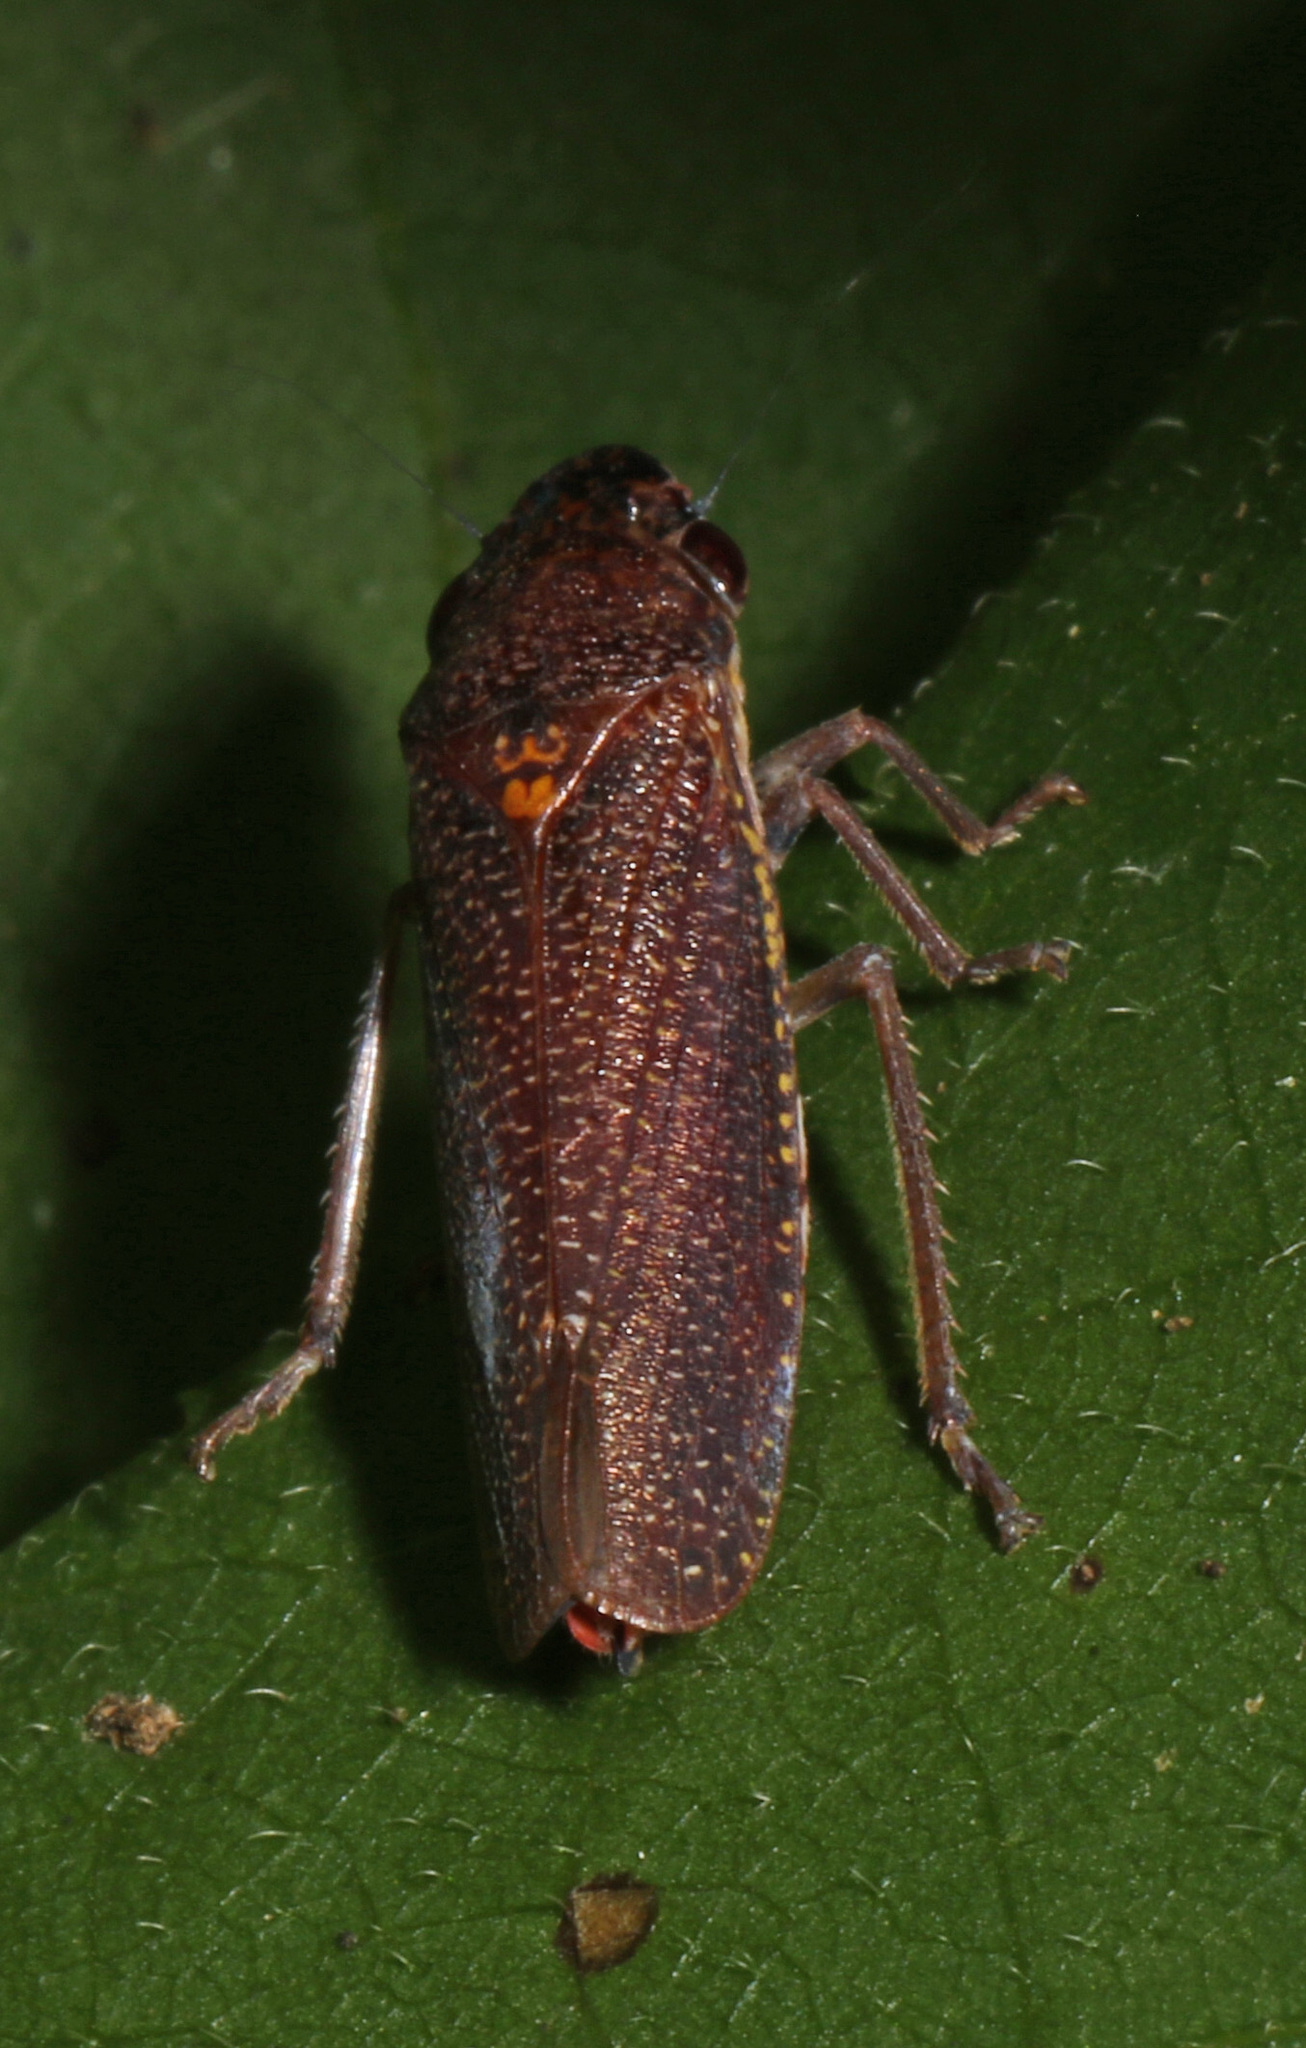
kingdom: Animalia
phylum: Arthropoda
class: Insecta
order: Hemiptera
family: Cicadellidae
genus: Paraulacizes
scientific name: Paraulacizes irrorata
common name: Speckled sharpshooter
